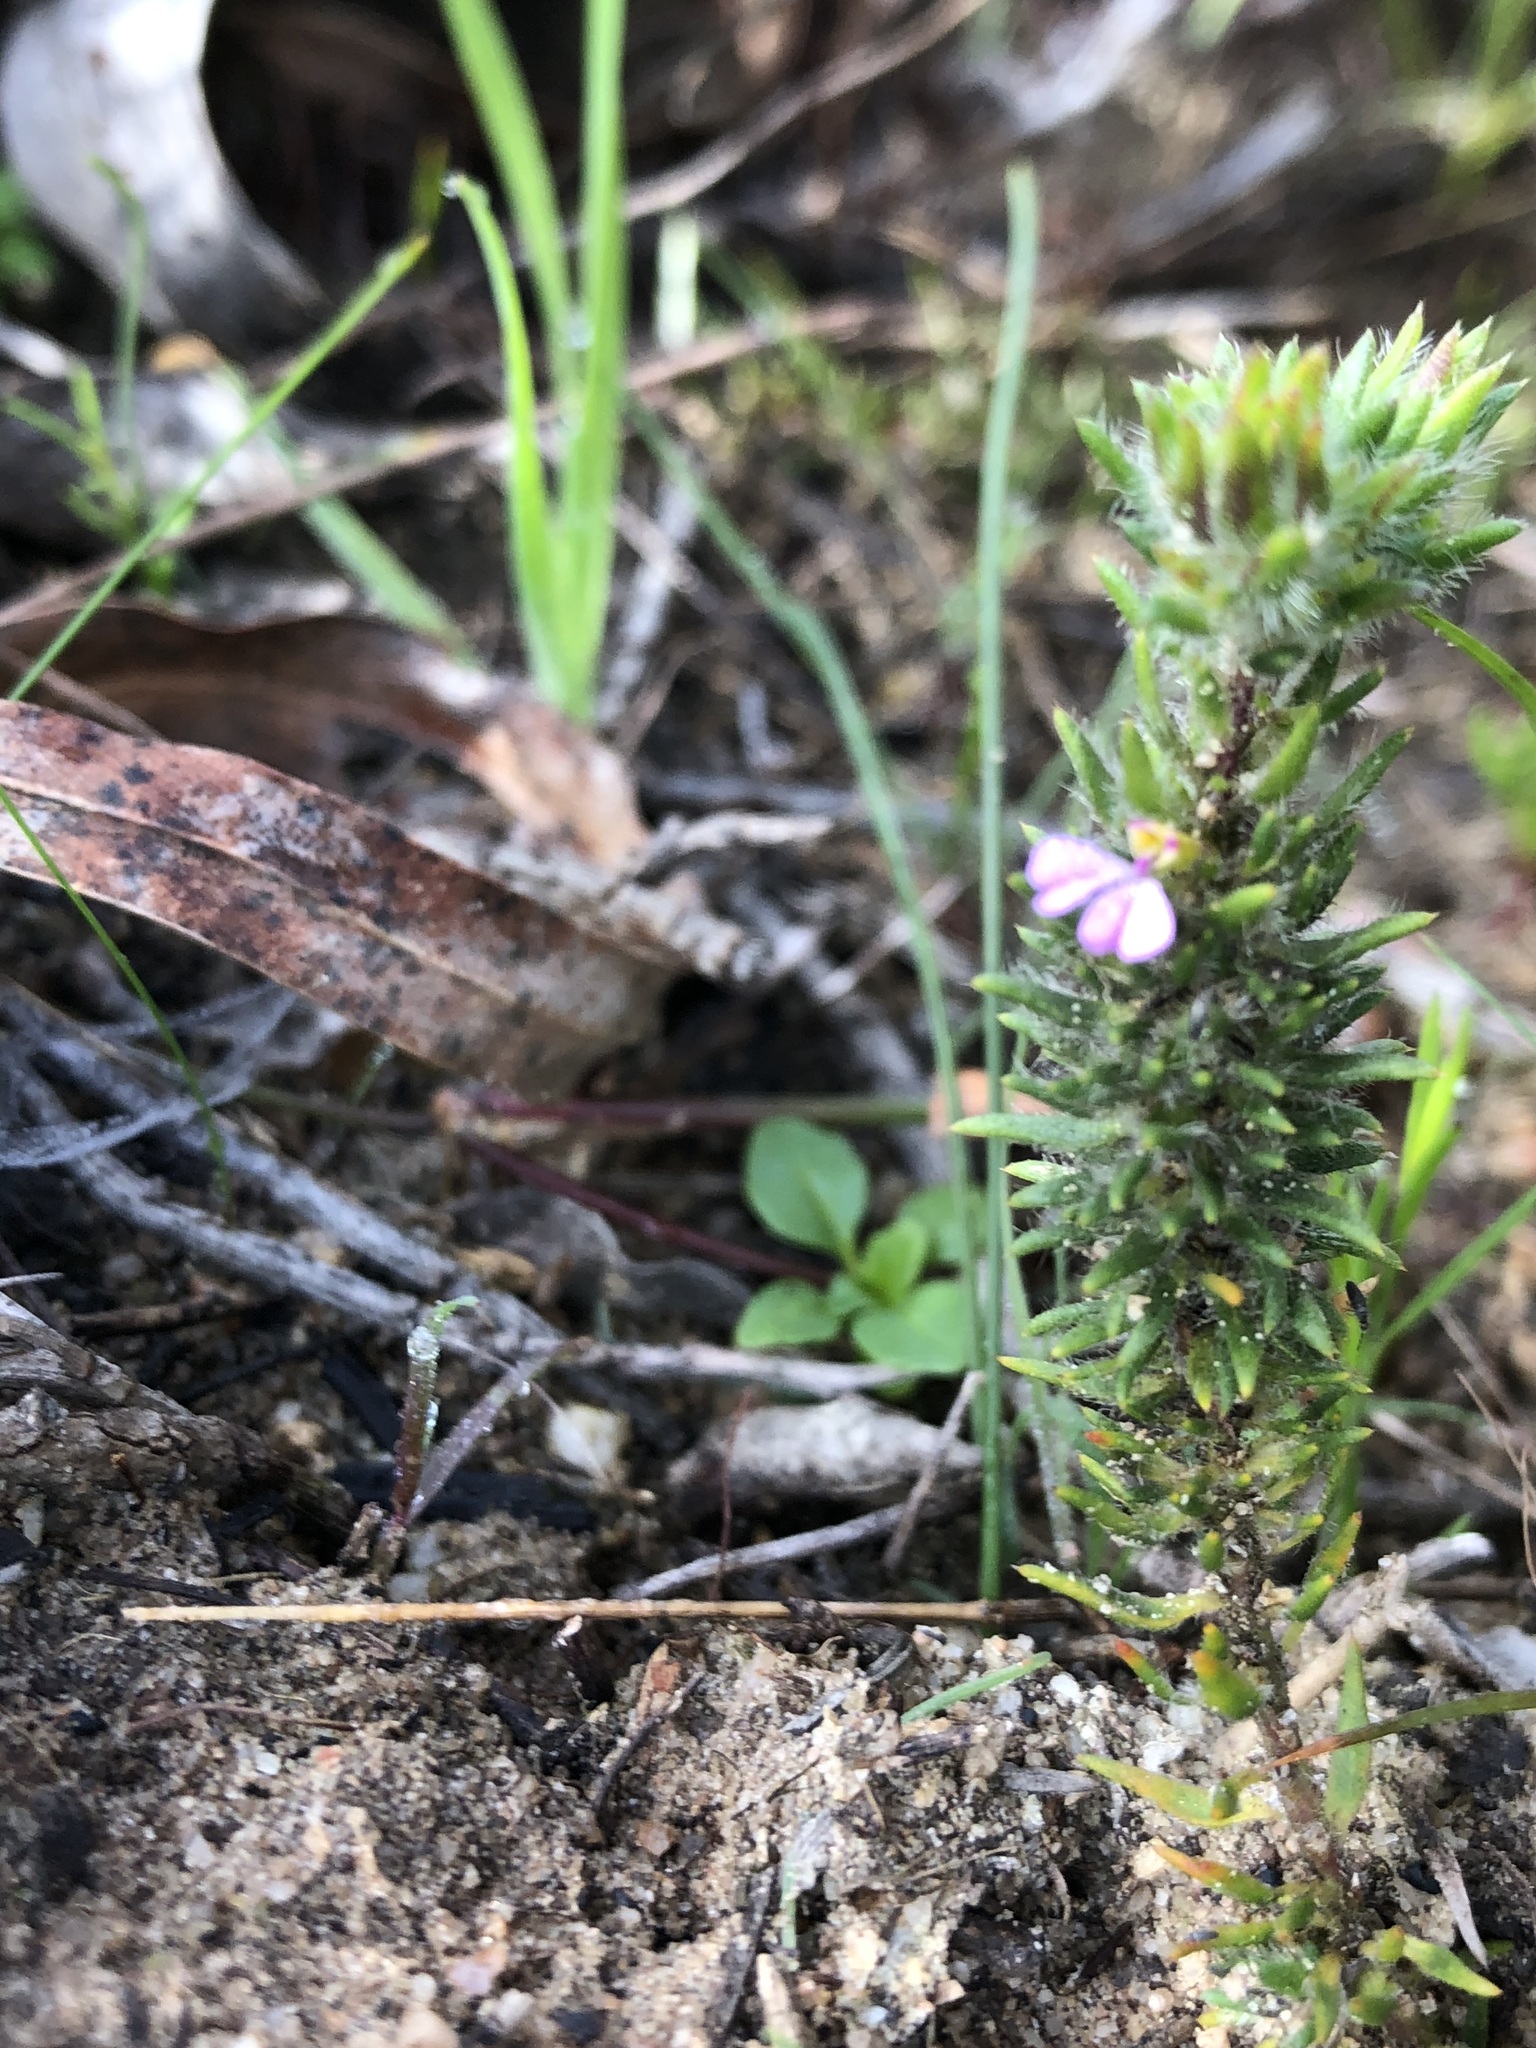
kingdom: Plantae
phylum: Tracheophyta
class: Magnoliopsida
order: Fabales
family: Polygalaceae
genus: Muraltia
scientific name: Muraltia thunbergii
